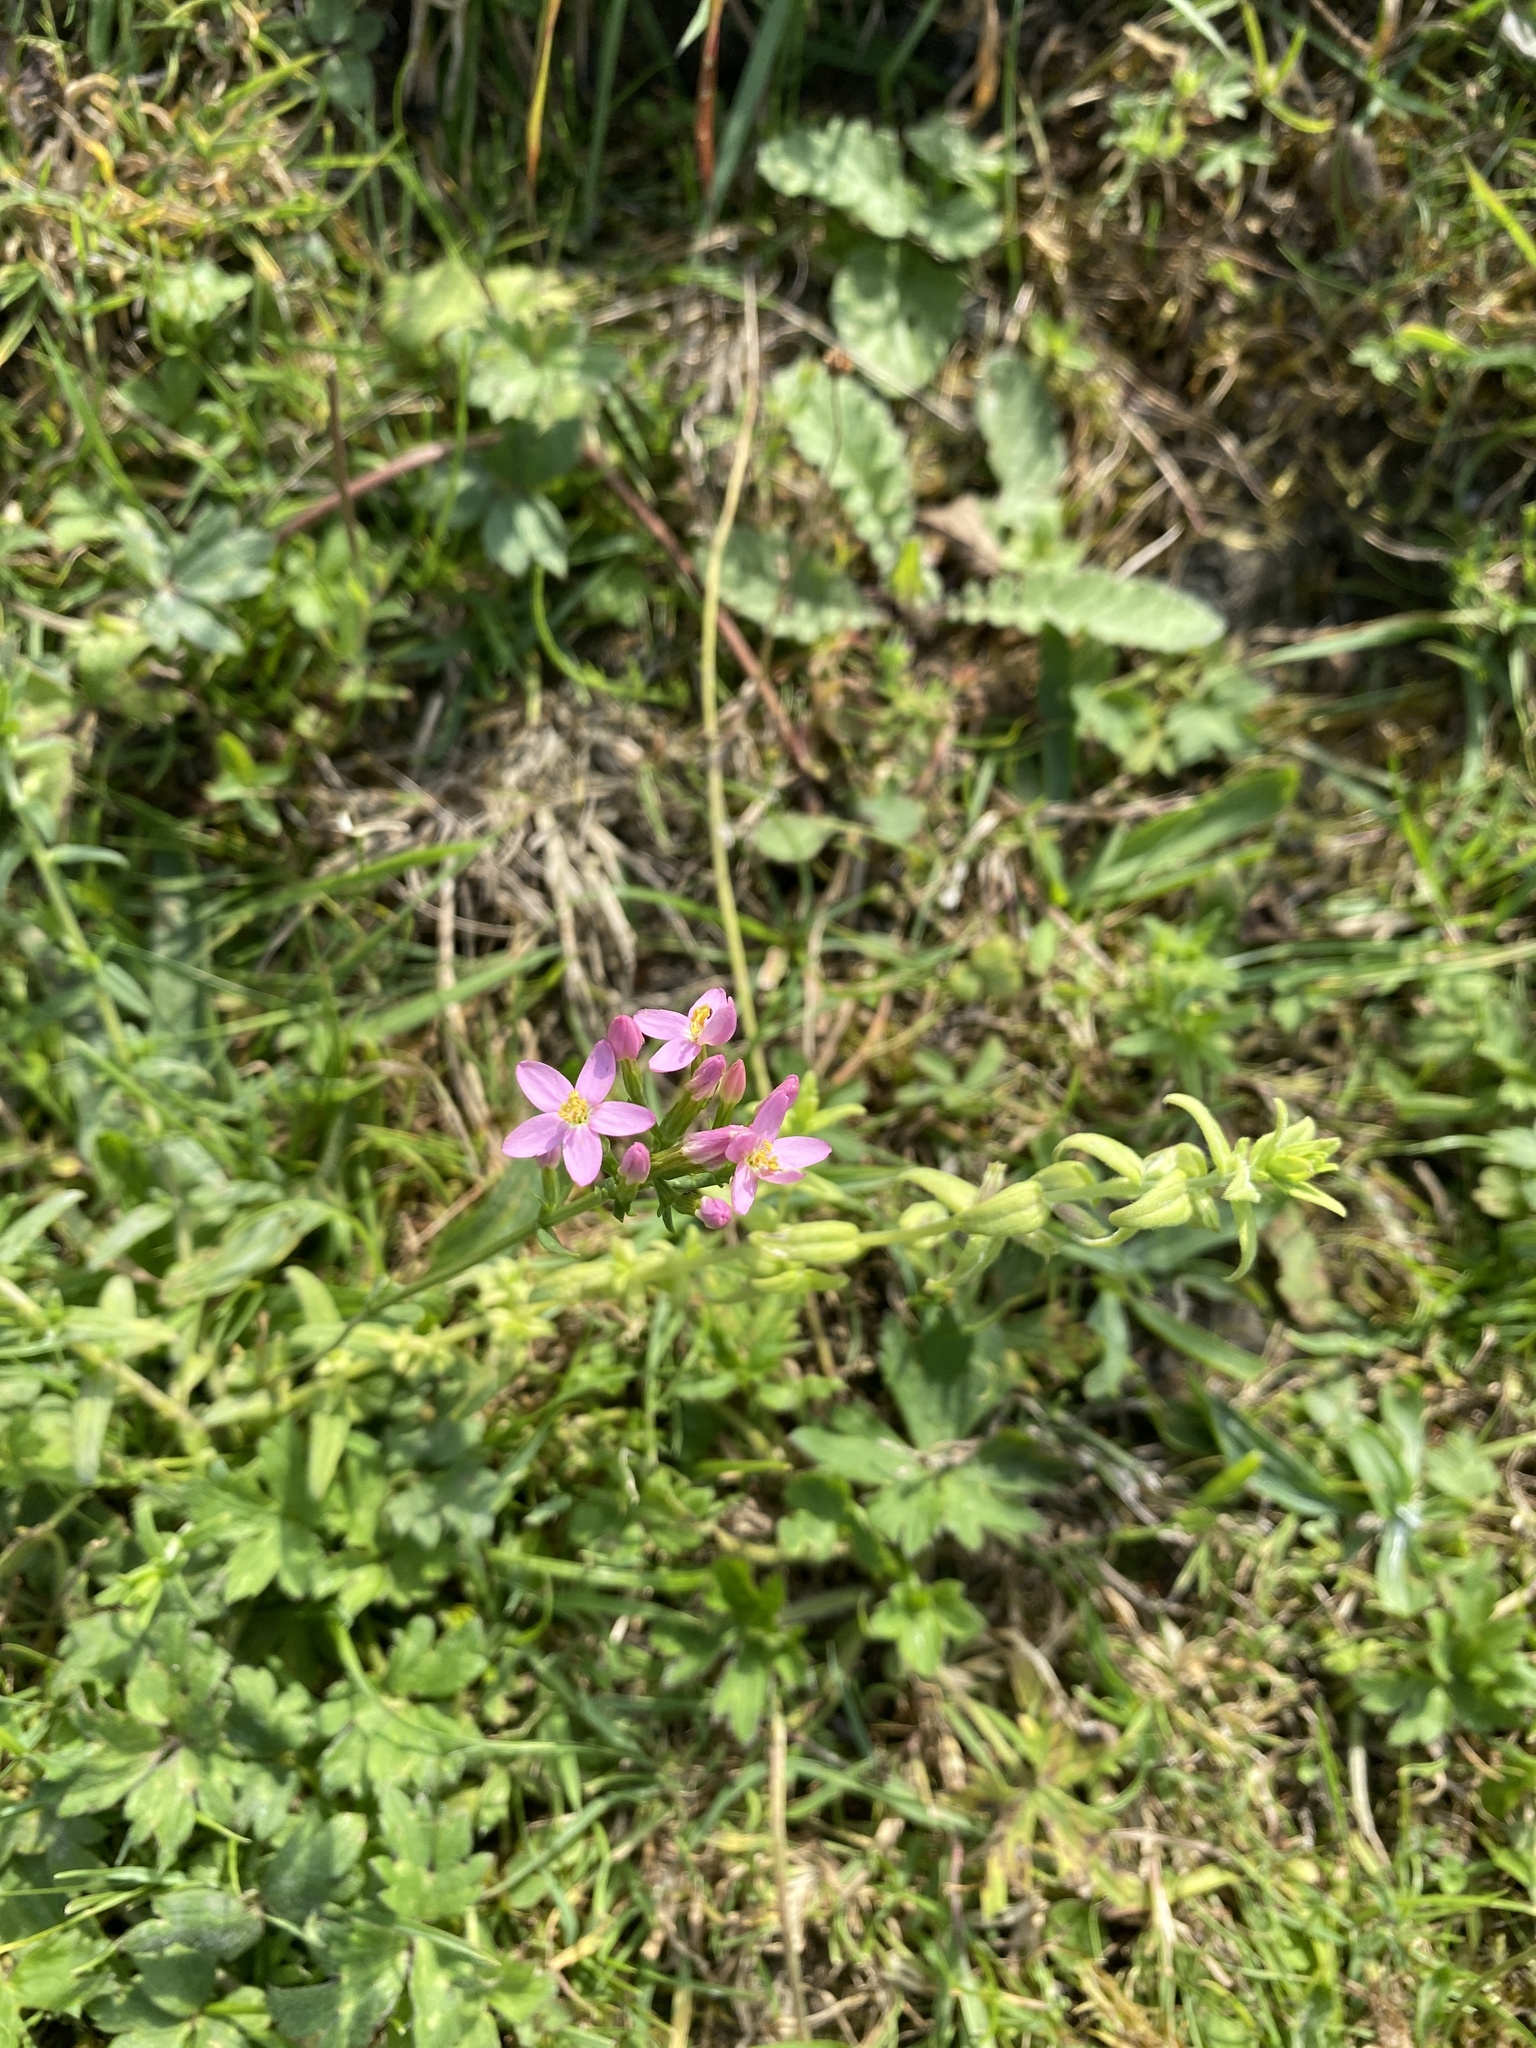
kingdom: Plantae
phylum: Tracheophyta
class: Magnoliopsida
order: Gentianales
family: Gentianaceae
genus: Centaurium
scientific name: Centaurium erythraea
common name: Common centaury
